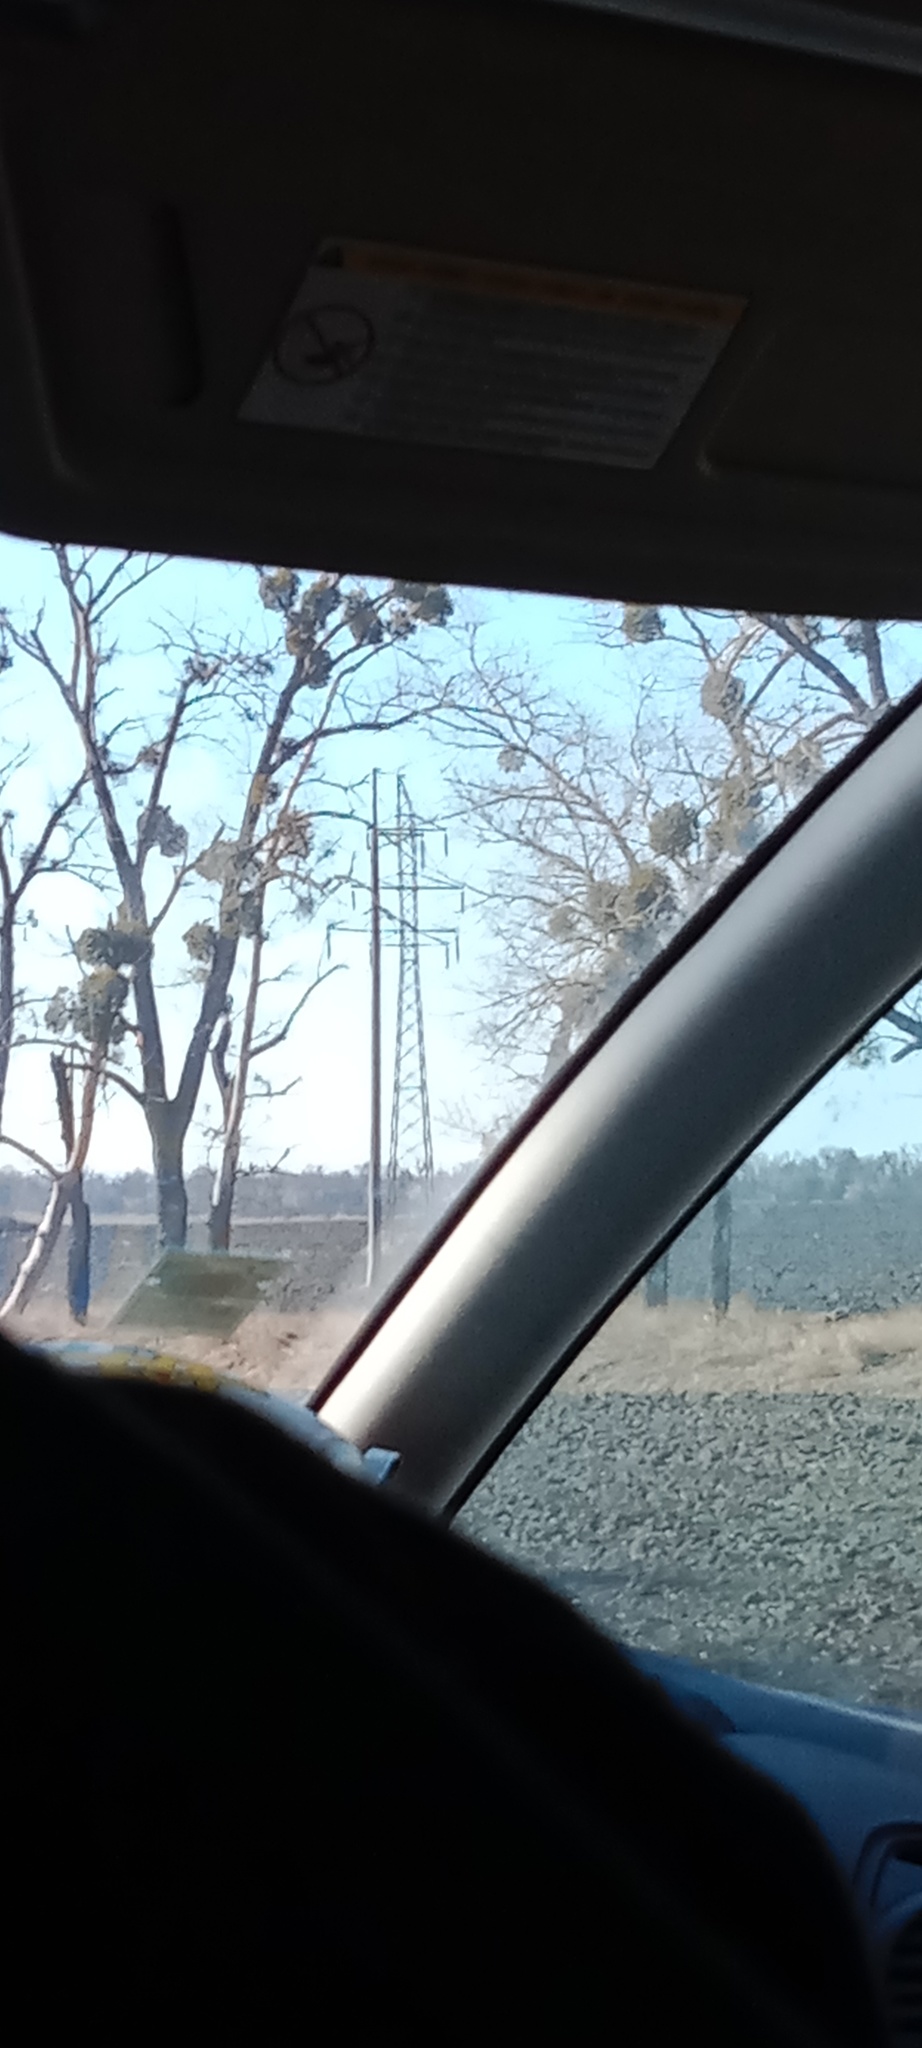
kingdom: Plantae
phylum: Tracheophyta
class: Magnoliopsida
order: Santalales
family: Viscaceae
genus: Viscum
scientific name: Viscum album
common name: Mistletoe
